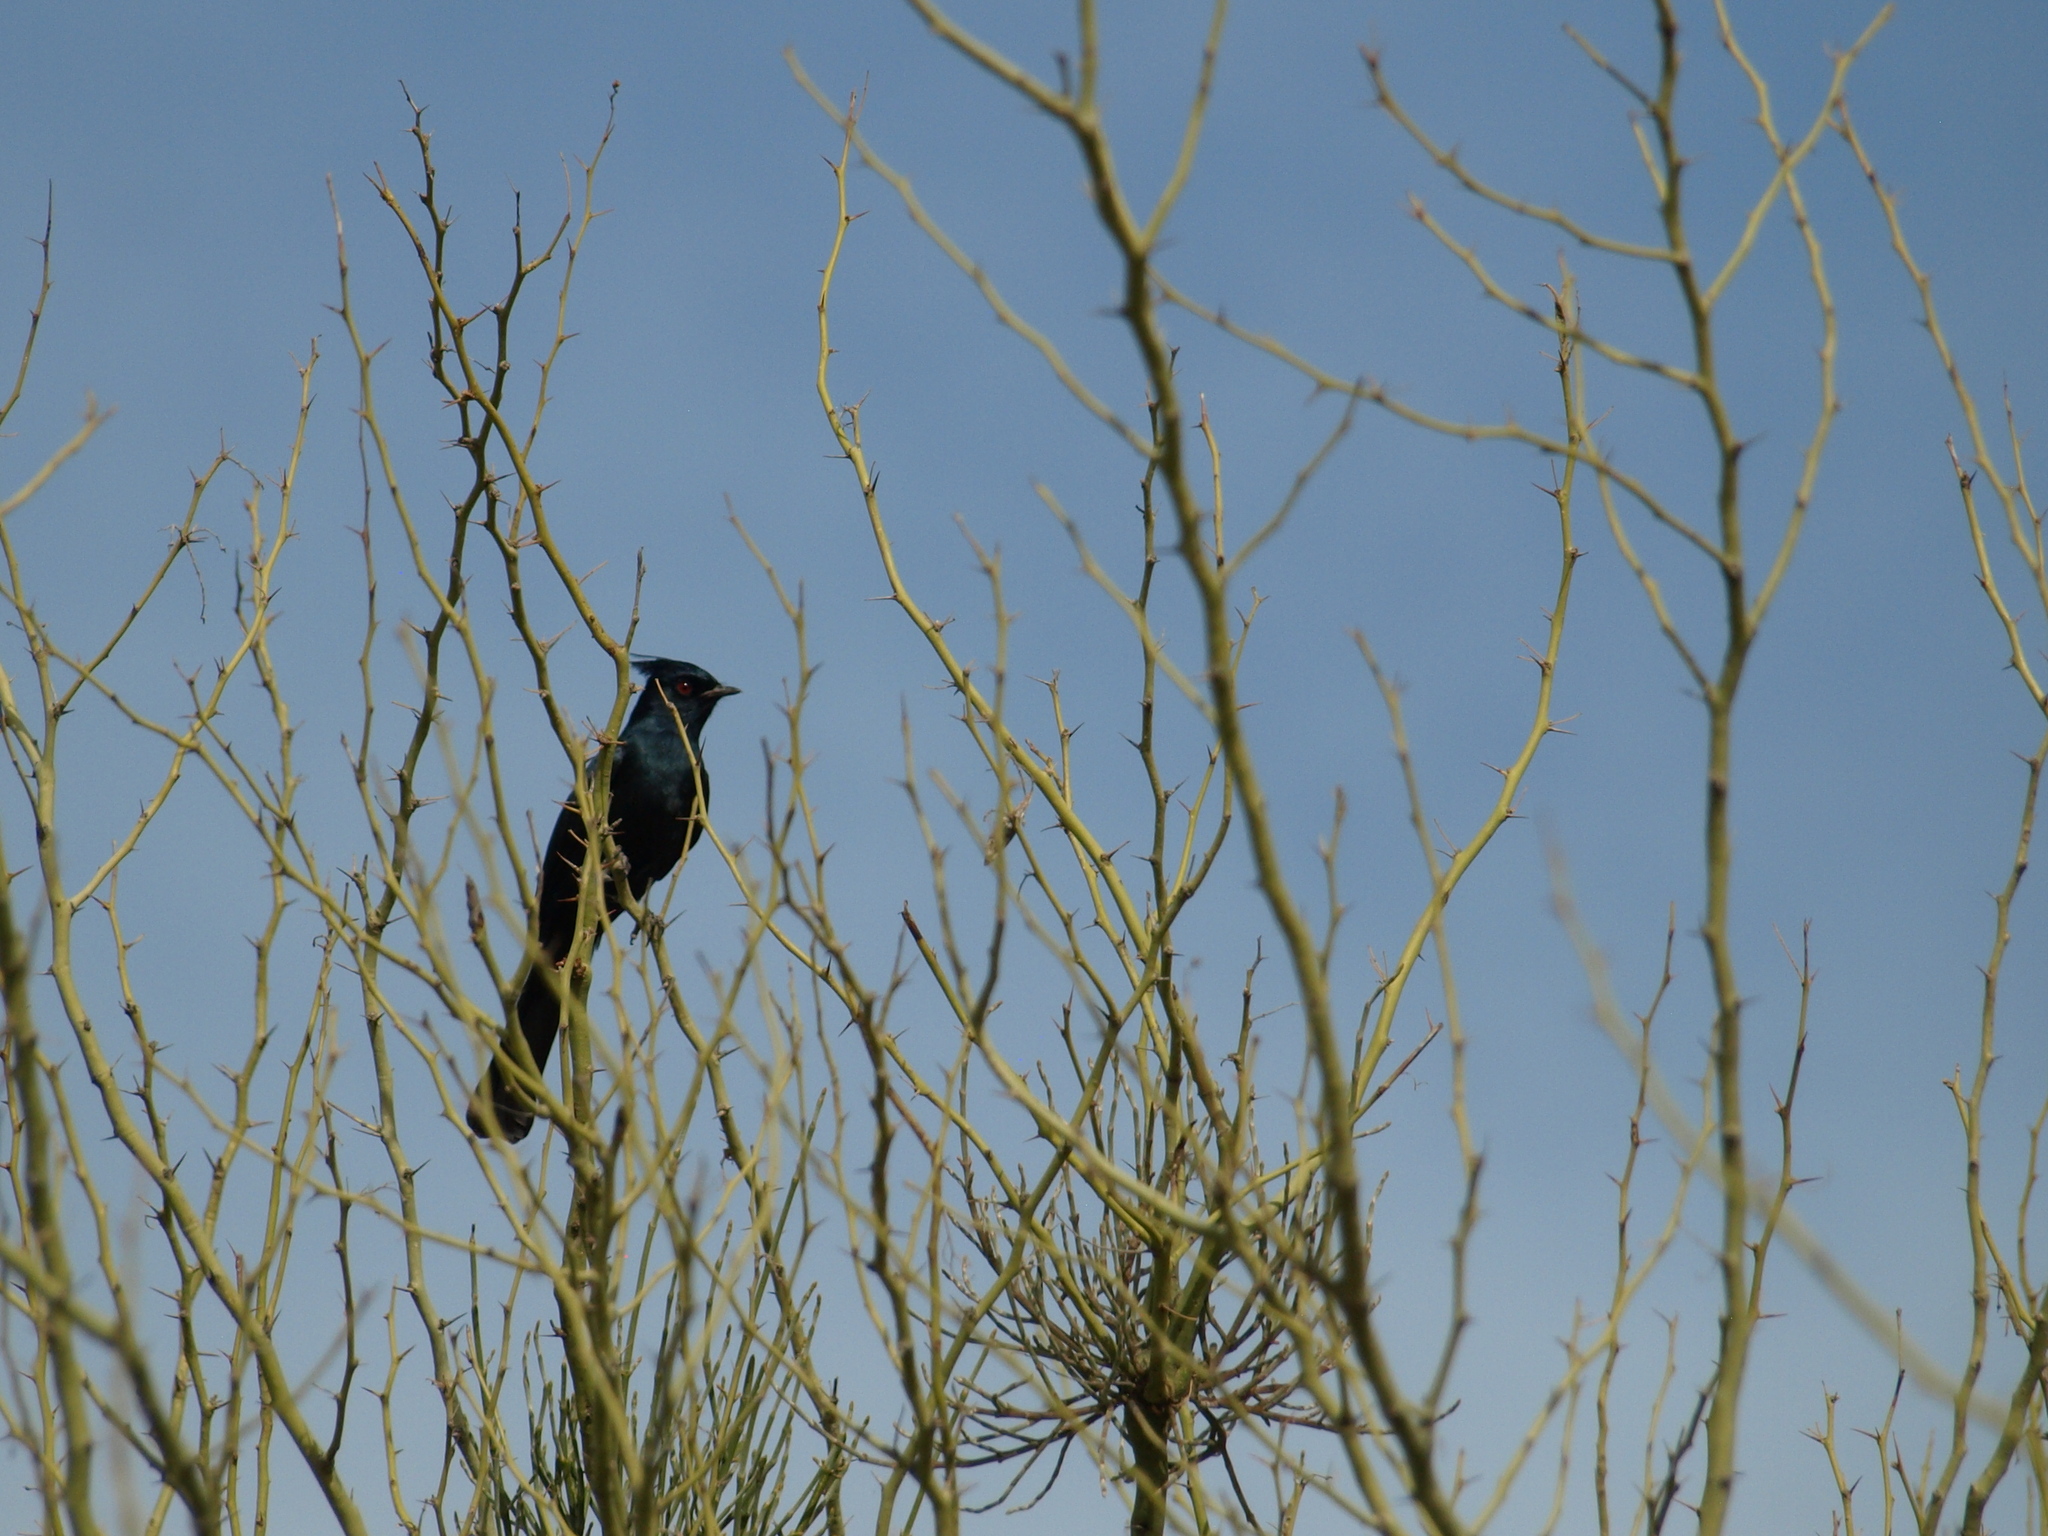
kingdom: Animalia
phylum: Chordata
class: Aves
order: Passeriformes
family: Ptilogonatidae
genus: Phainopepla
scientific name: Phainopepla nitens
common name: Phainopepla
